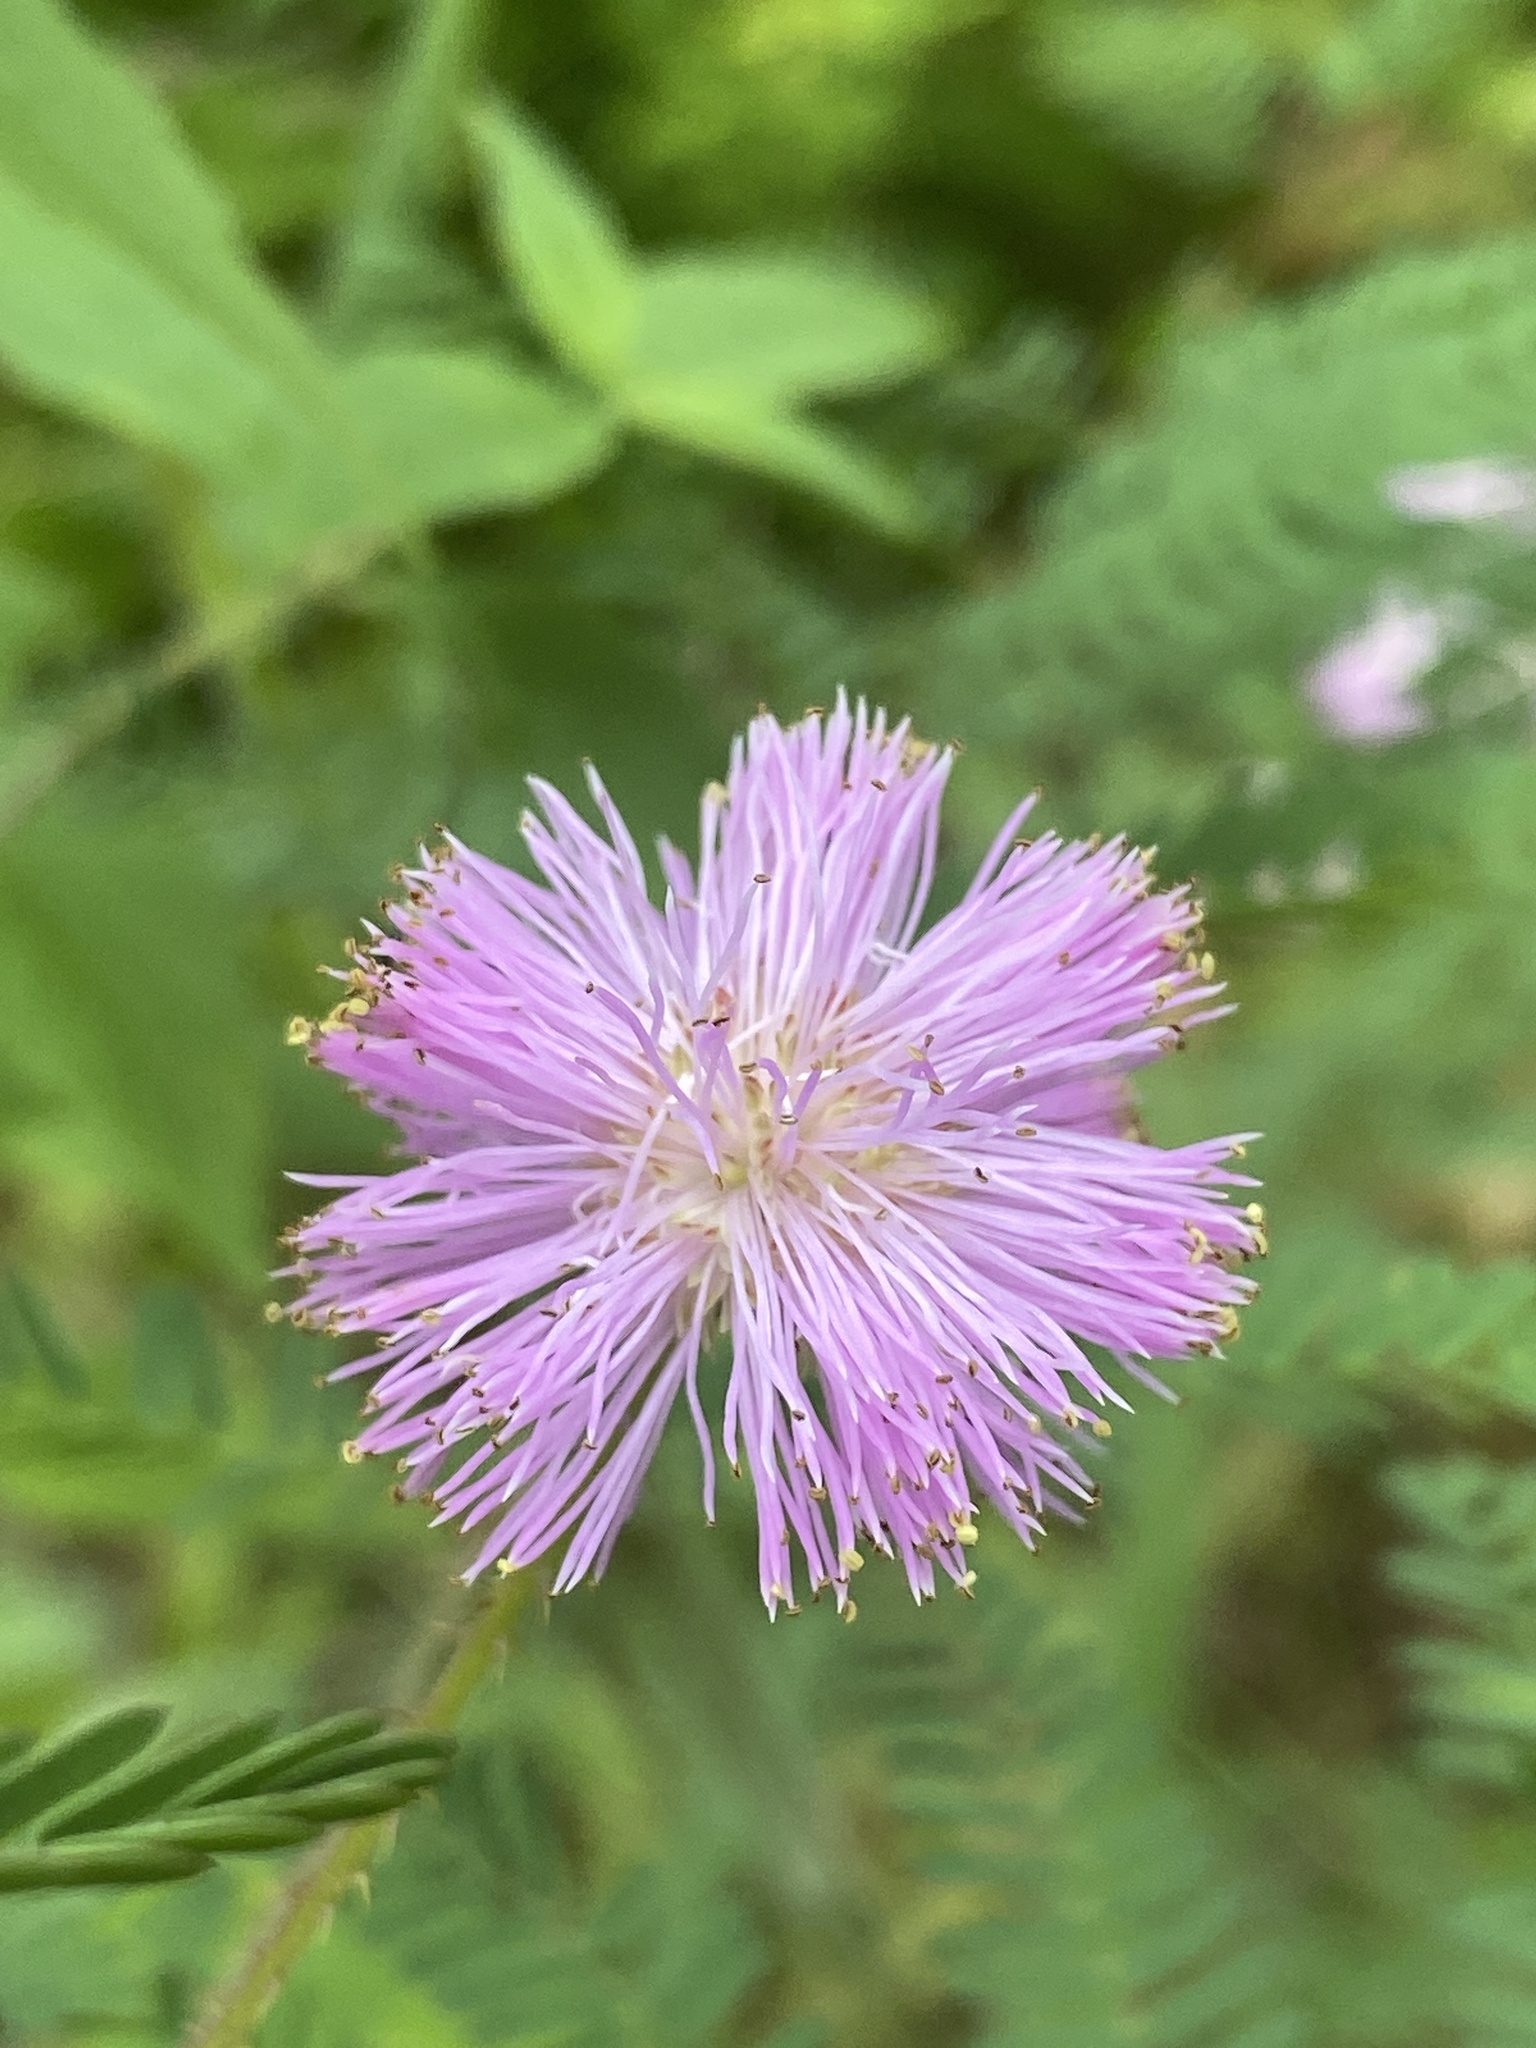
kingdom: Plantae
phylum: Tracheophyta
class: Magnoliopsida
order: Fabales
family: Fabaceae
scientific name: Fabaceae
